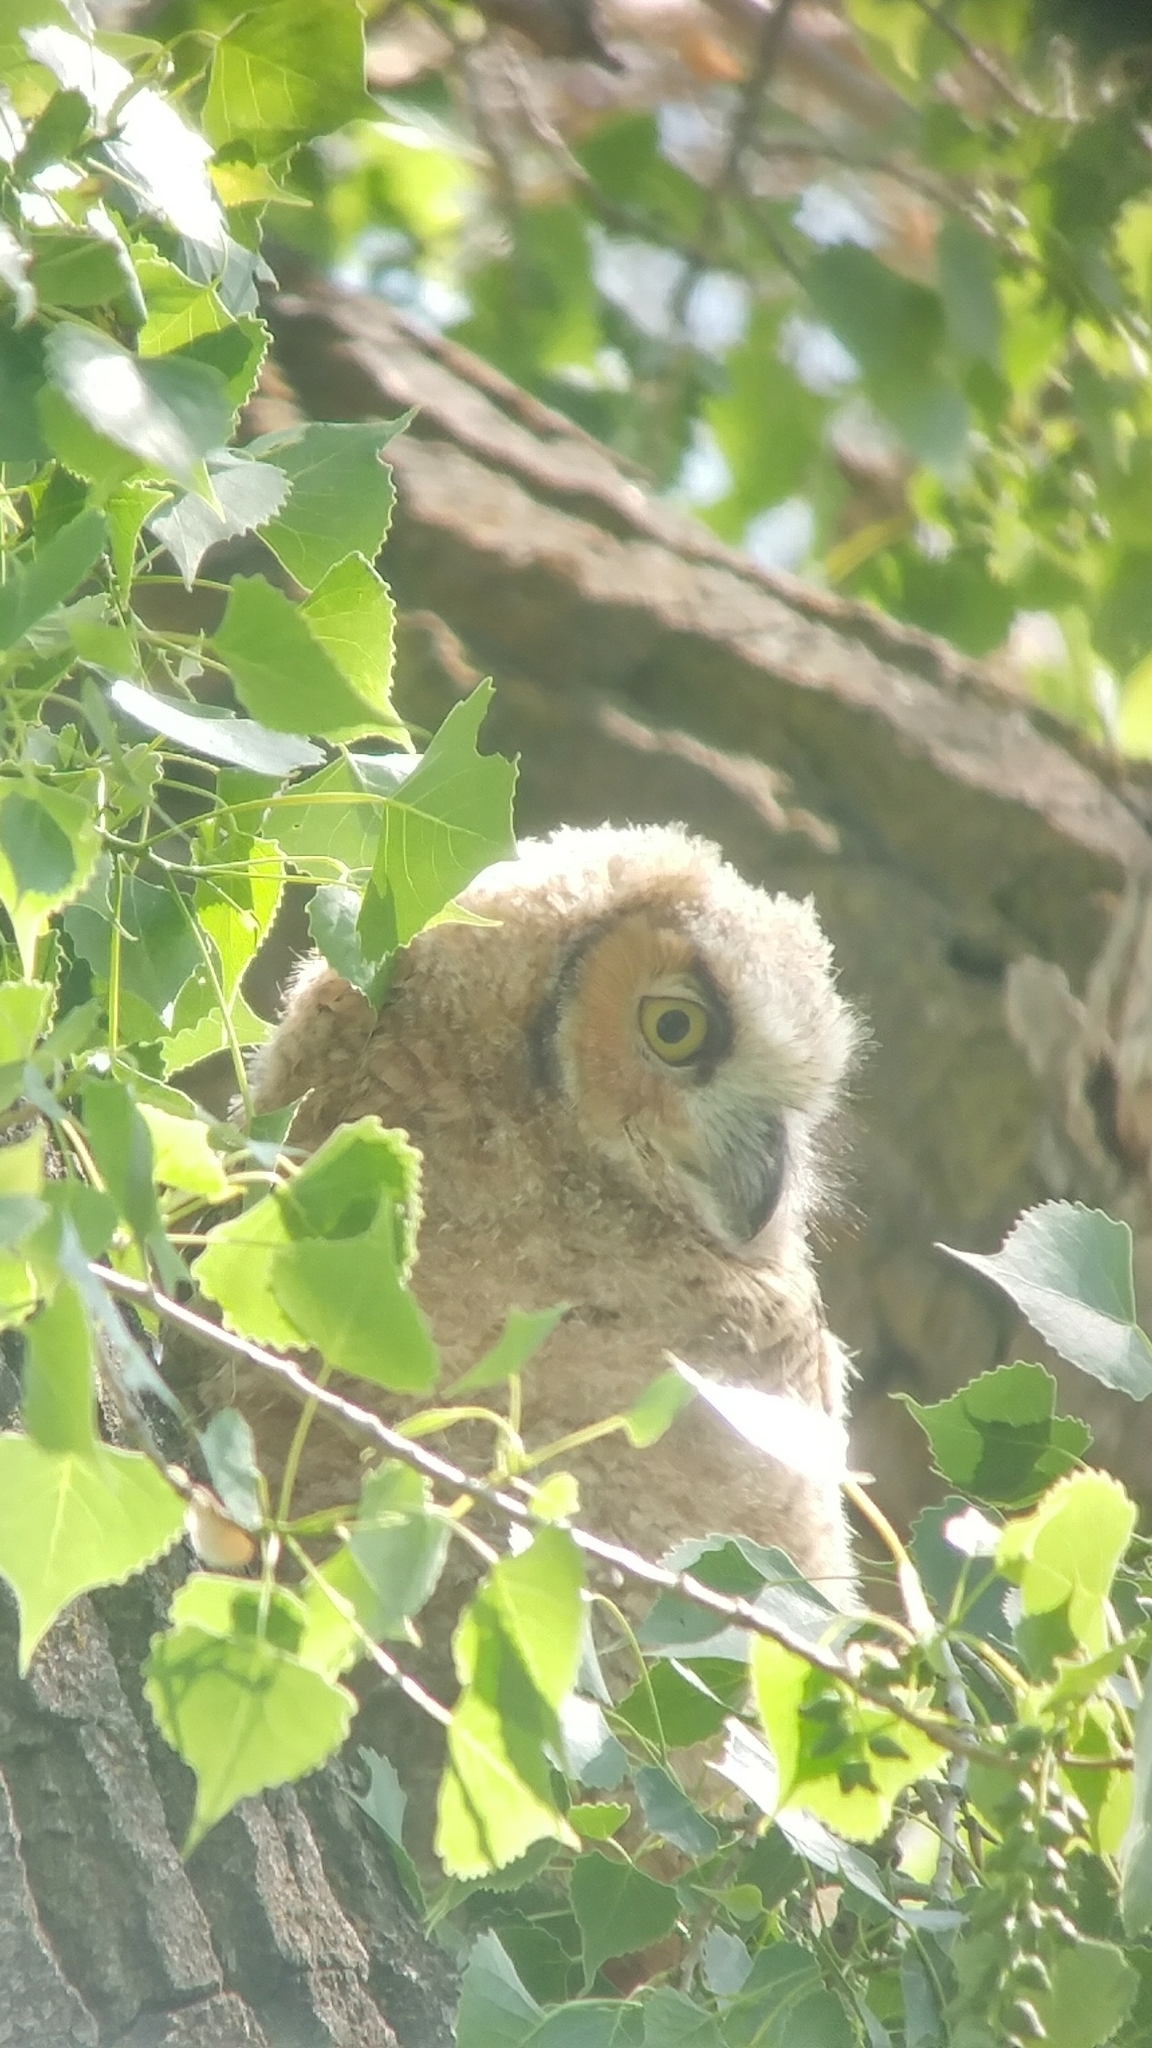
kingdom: Animalia
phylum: Chordata
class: Aves
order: Strigiformes
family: Strigidae
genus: Bubo
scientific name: Bubo virginianus
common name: Great horned owl
